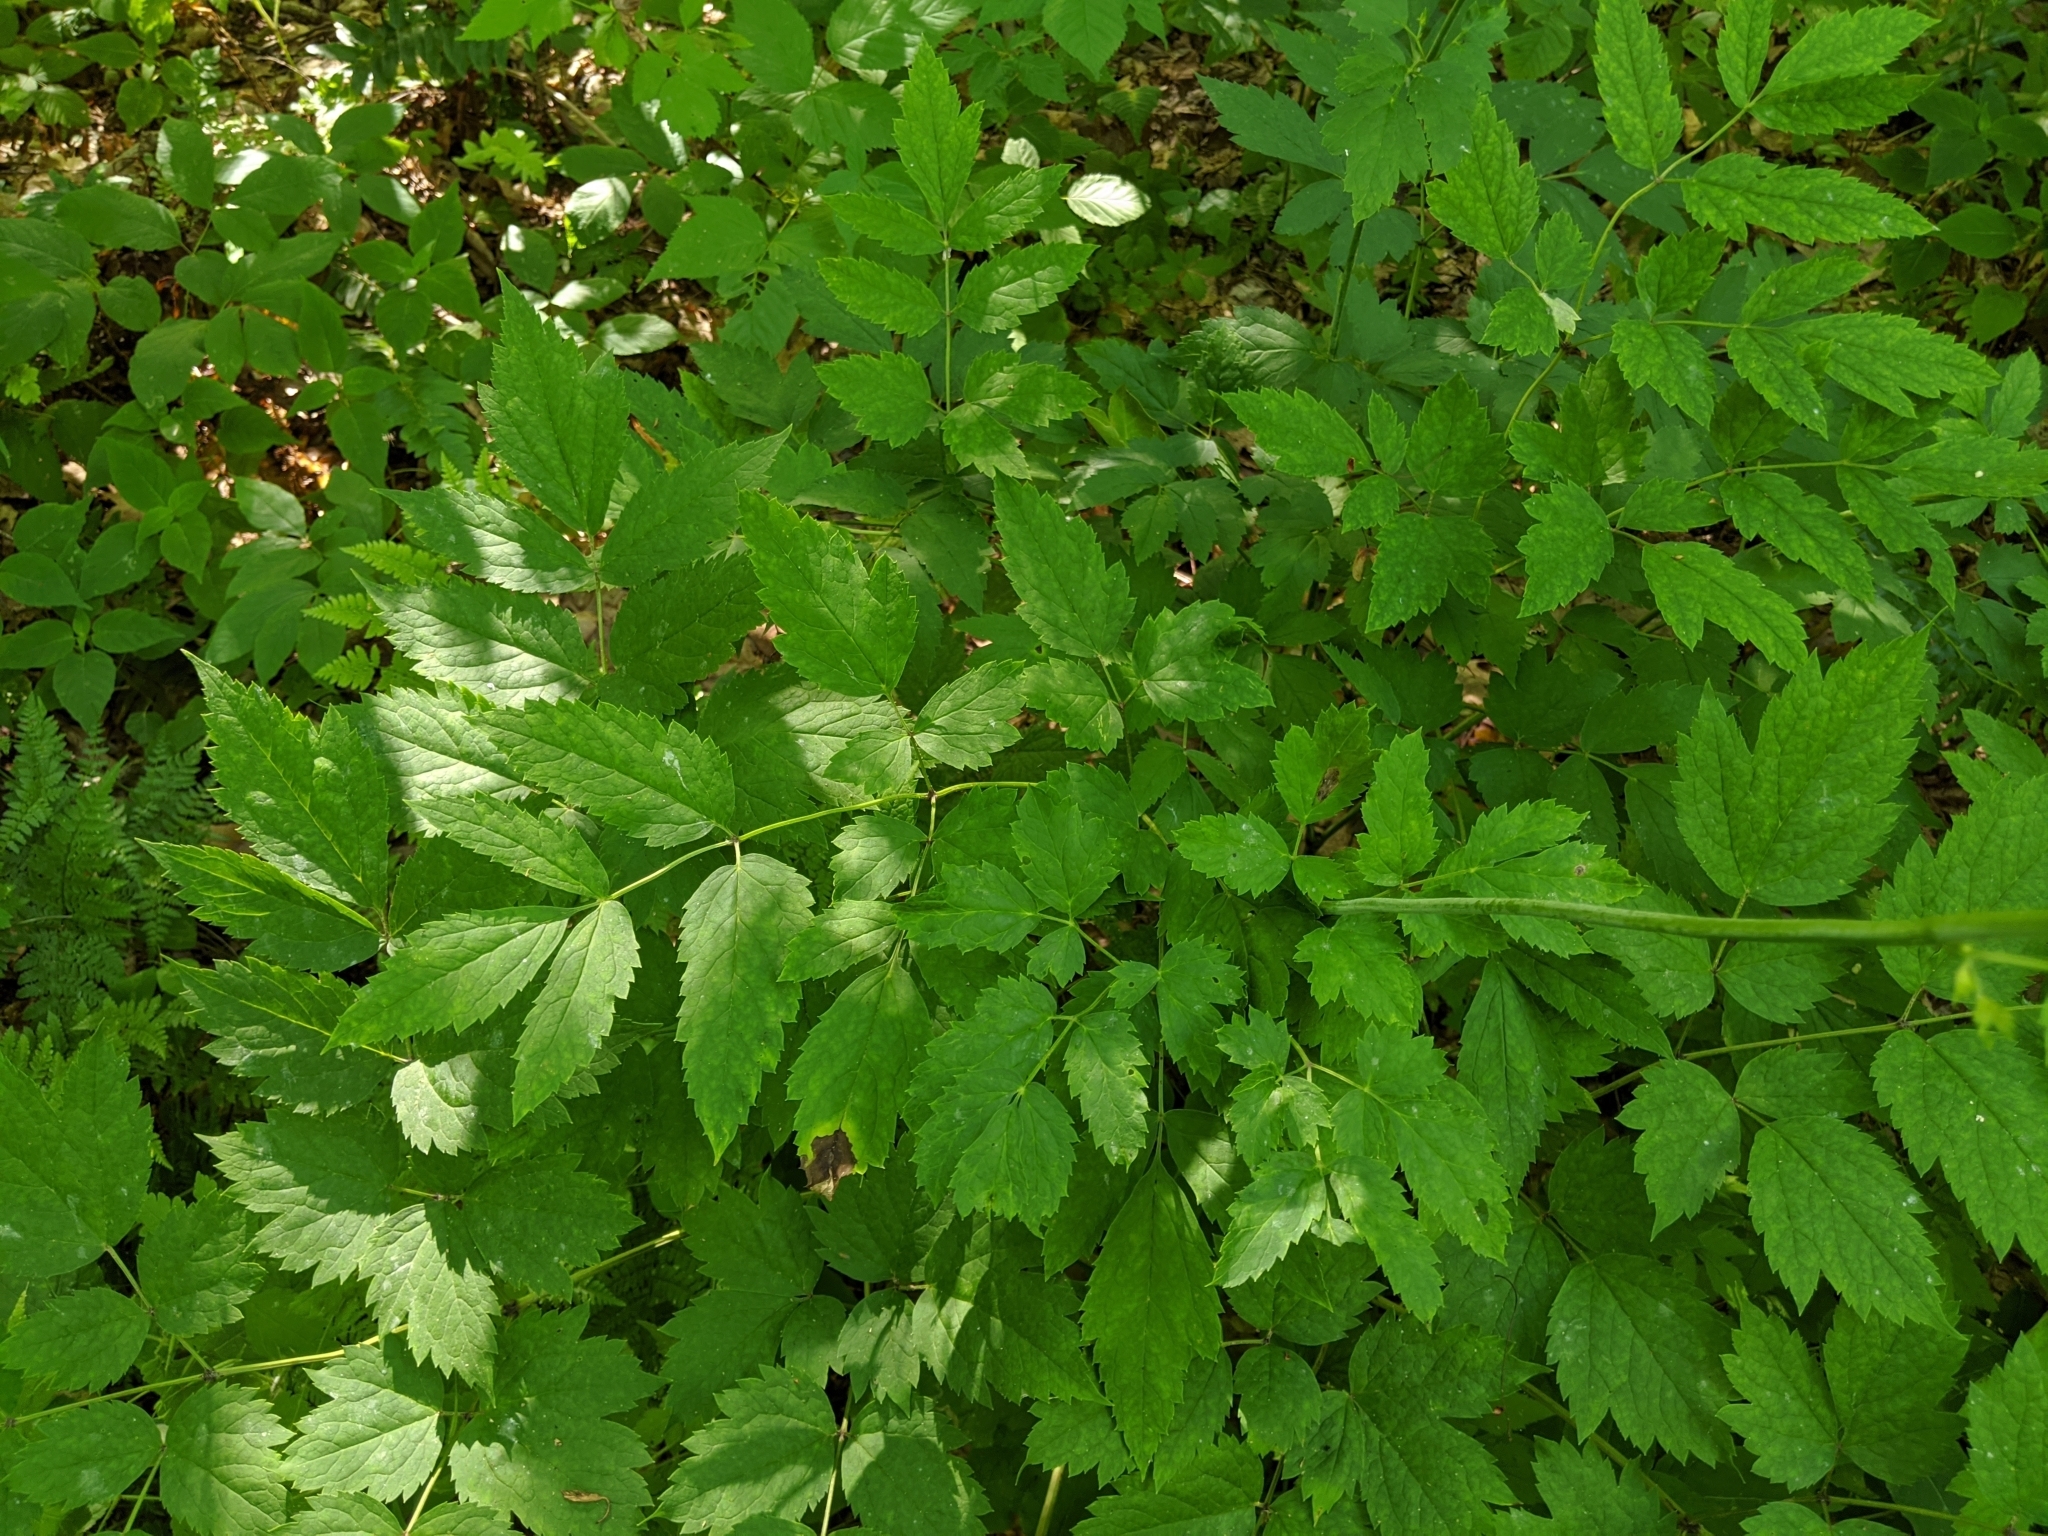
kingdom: Plantae
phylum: Tracheophyta
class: Magnoliopsida
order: Ranunculales
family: Ranunculaceae
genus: Actaea
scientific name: Actaea racemosa
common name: Black cohosh
